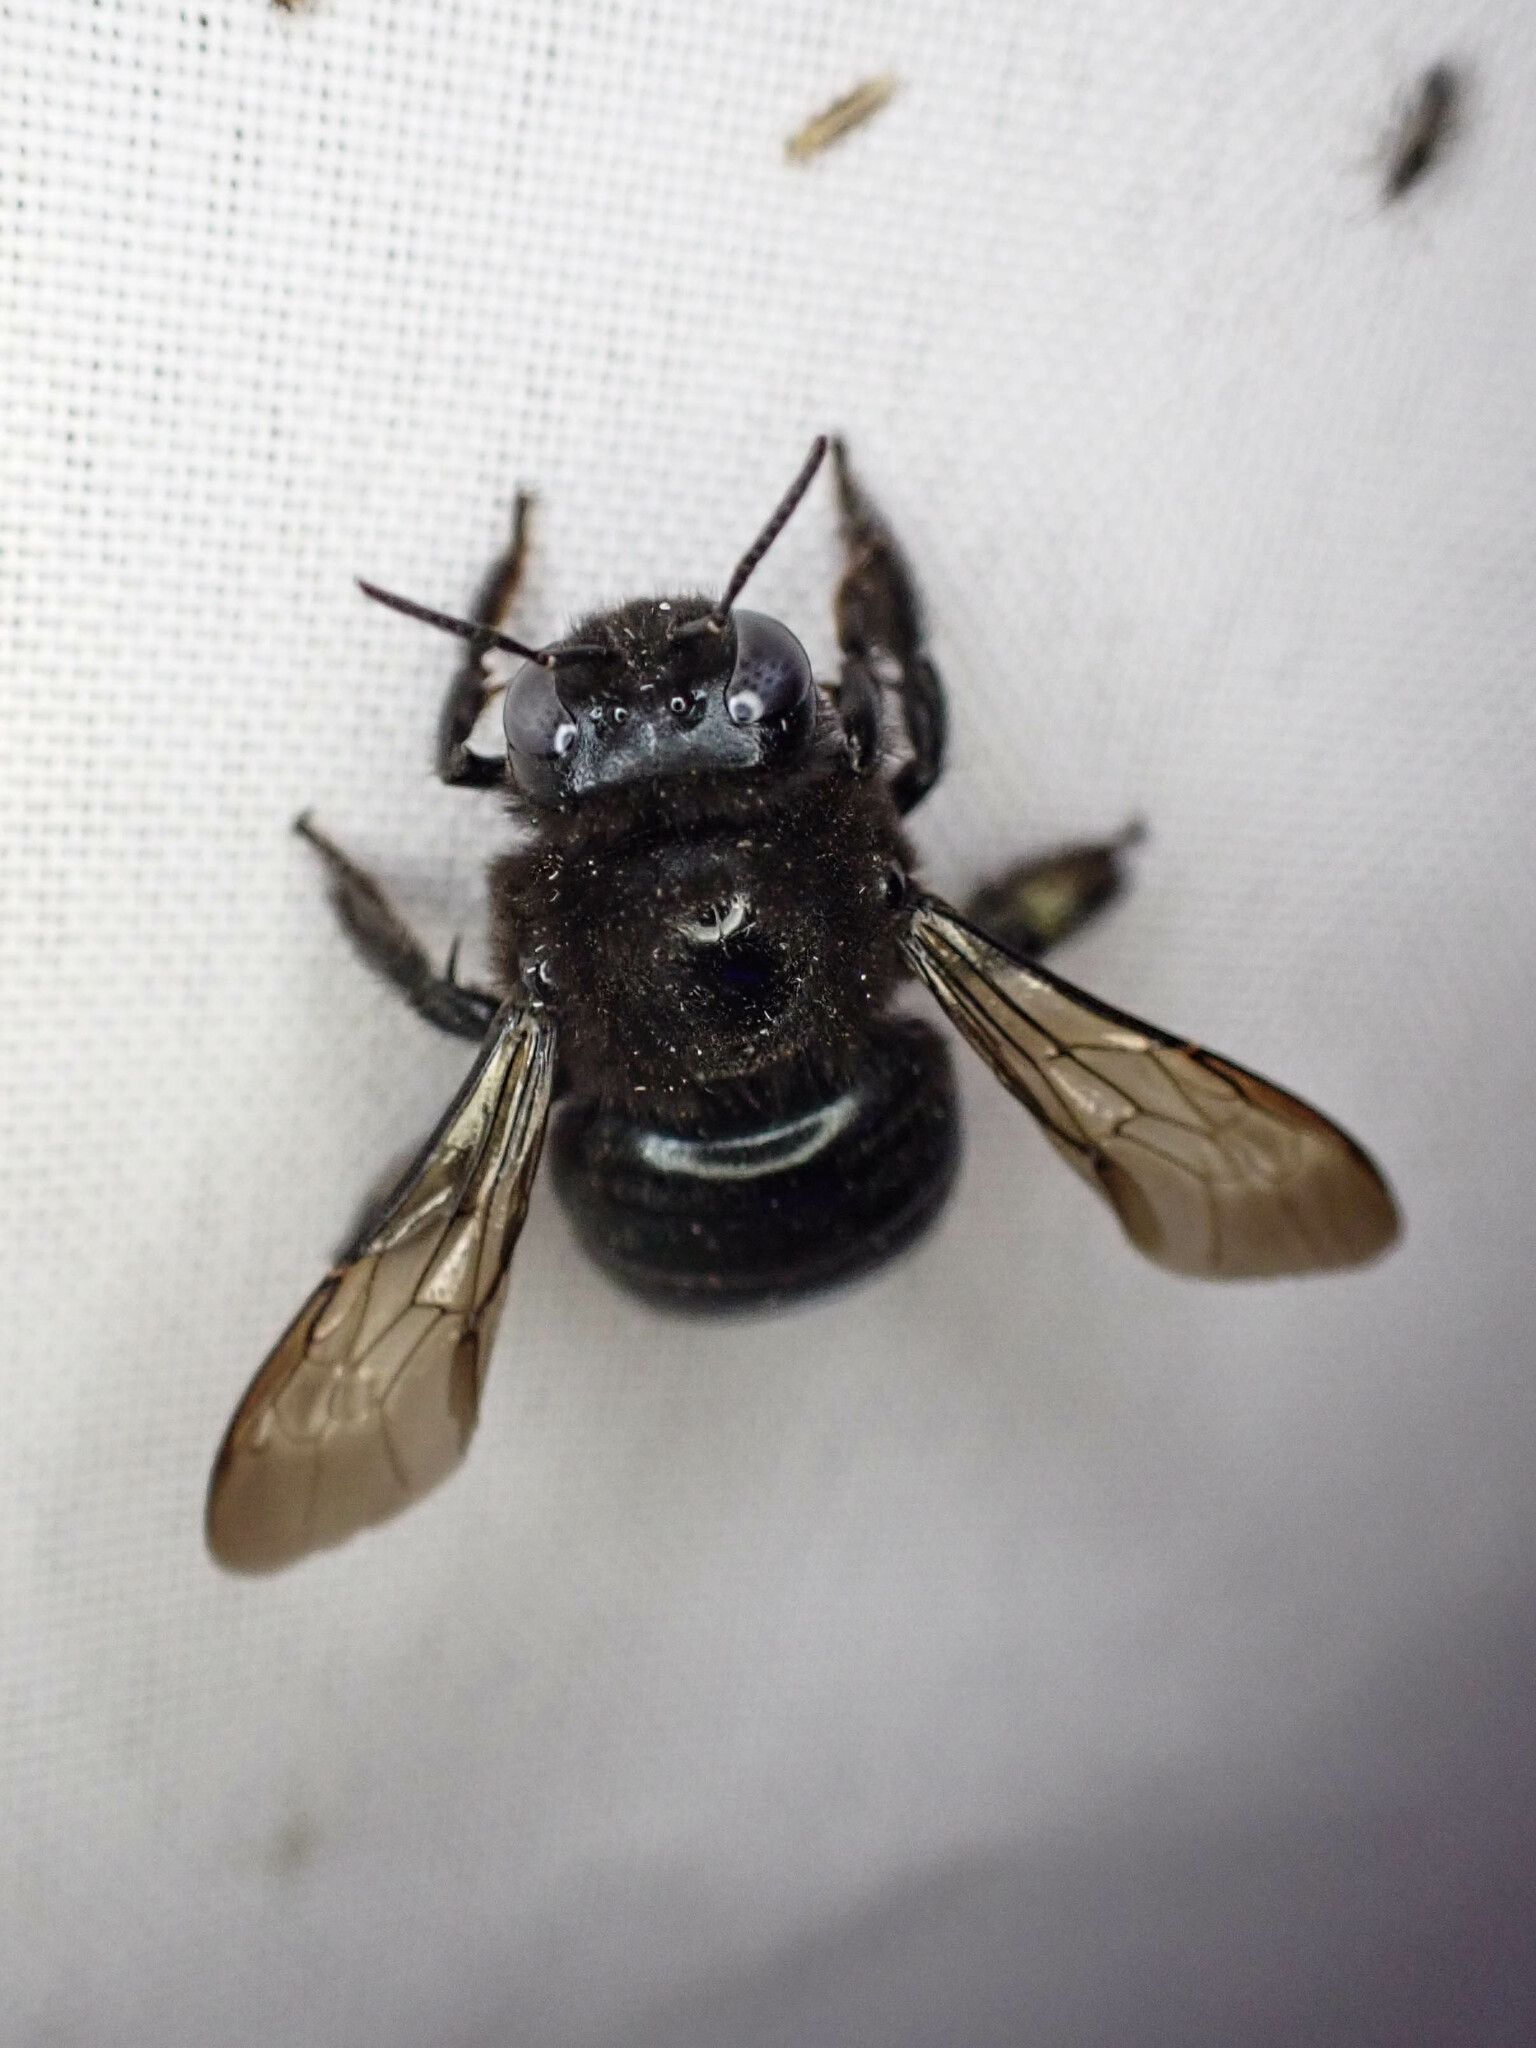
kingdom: Animalia
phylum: Arthropoda
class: Insecta
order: Hymenoptera
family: Apidae
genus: Xylocopa
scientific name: Xylocopa tabaniformis
